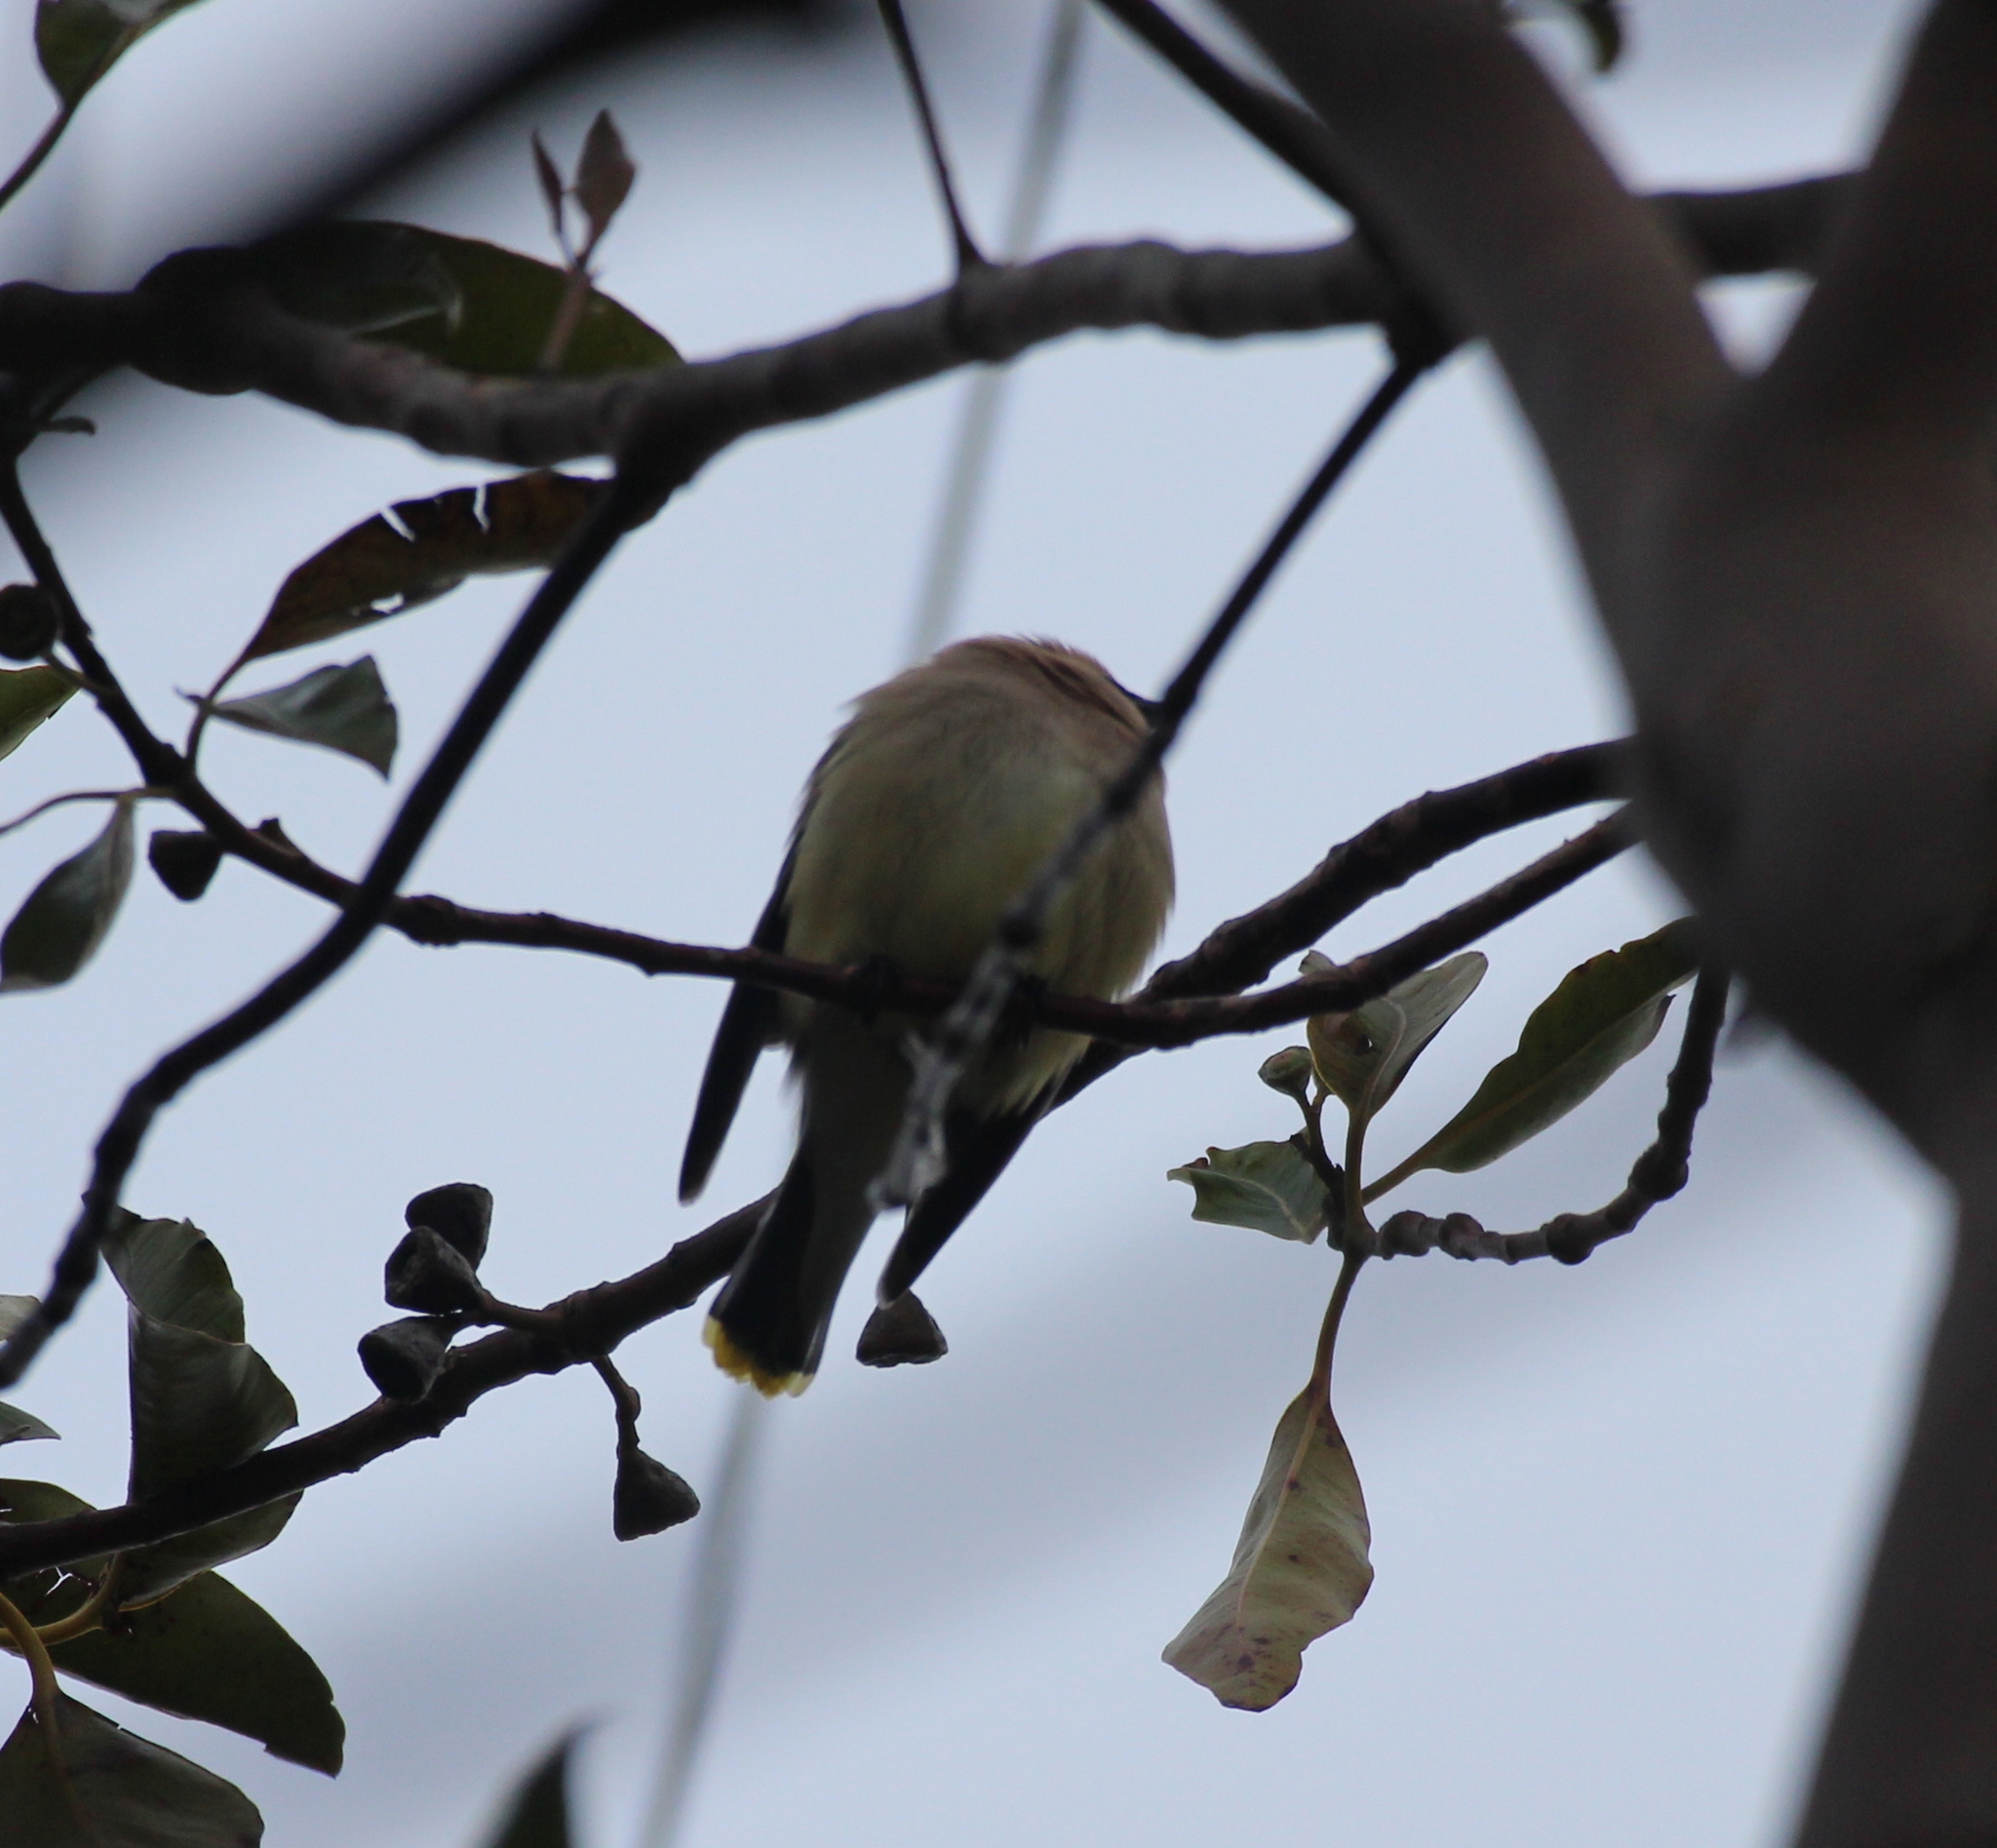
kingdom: Animalia
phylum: Chordata
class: Aves
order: Passeriformes
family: Bombycillidae
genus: Bombycilla
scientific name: Bombycilla cedrorum
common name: Cedar waxwing
